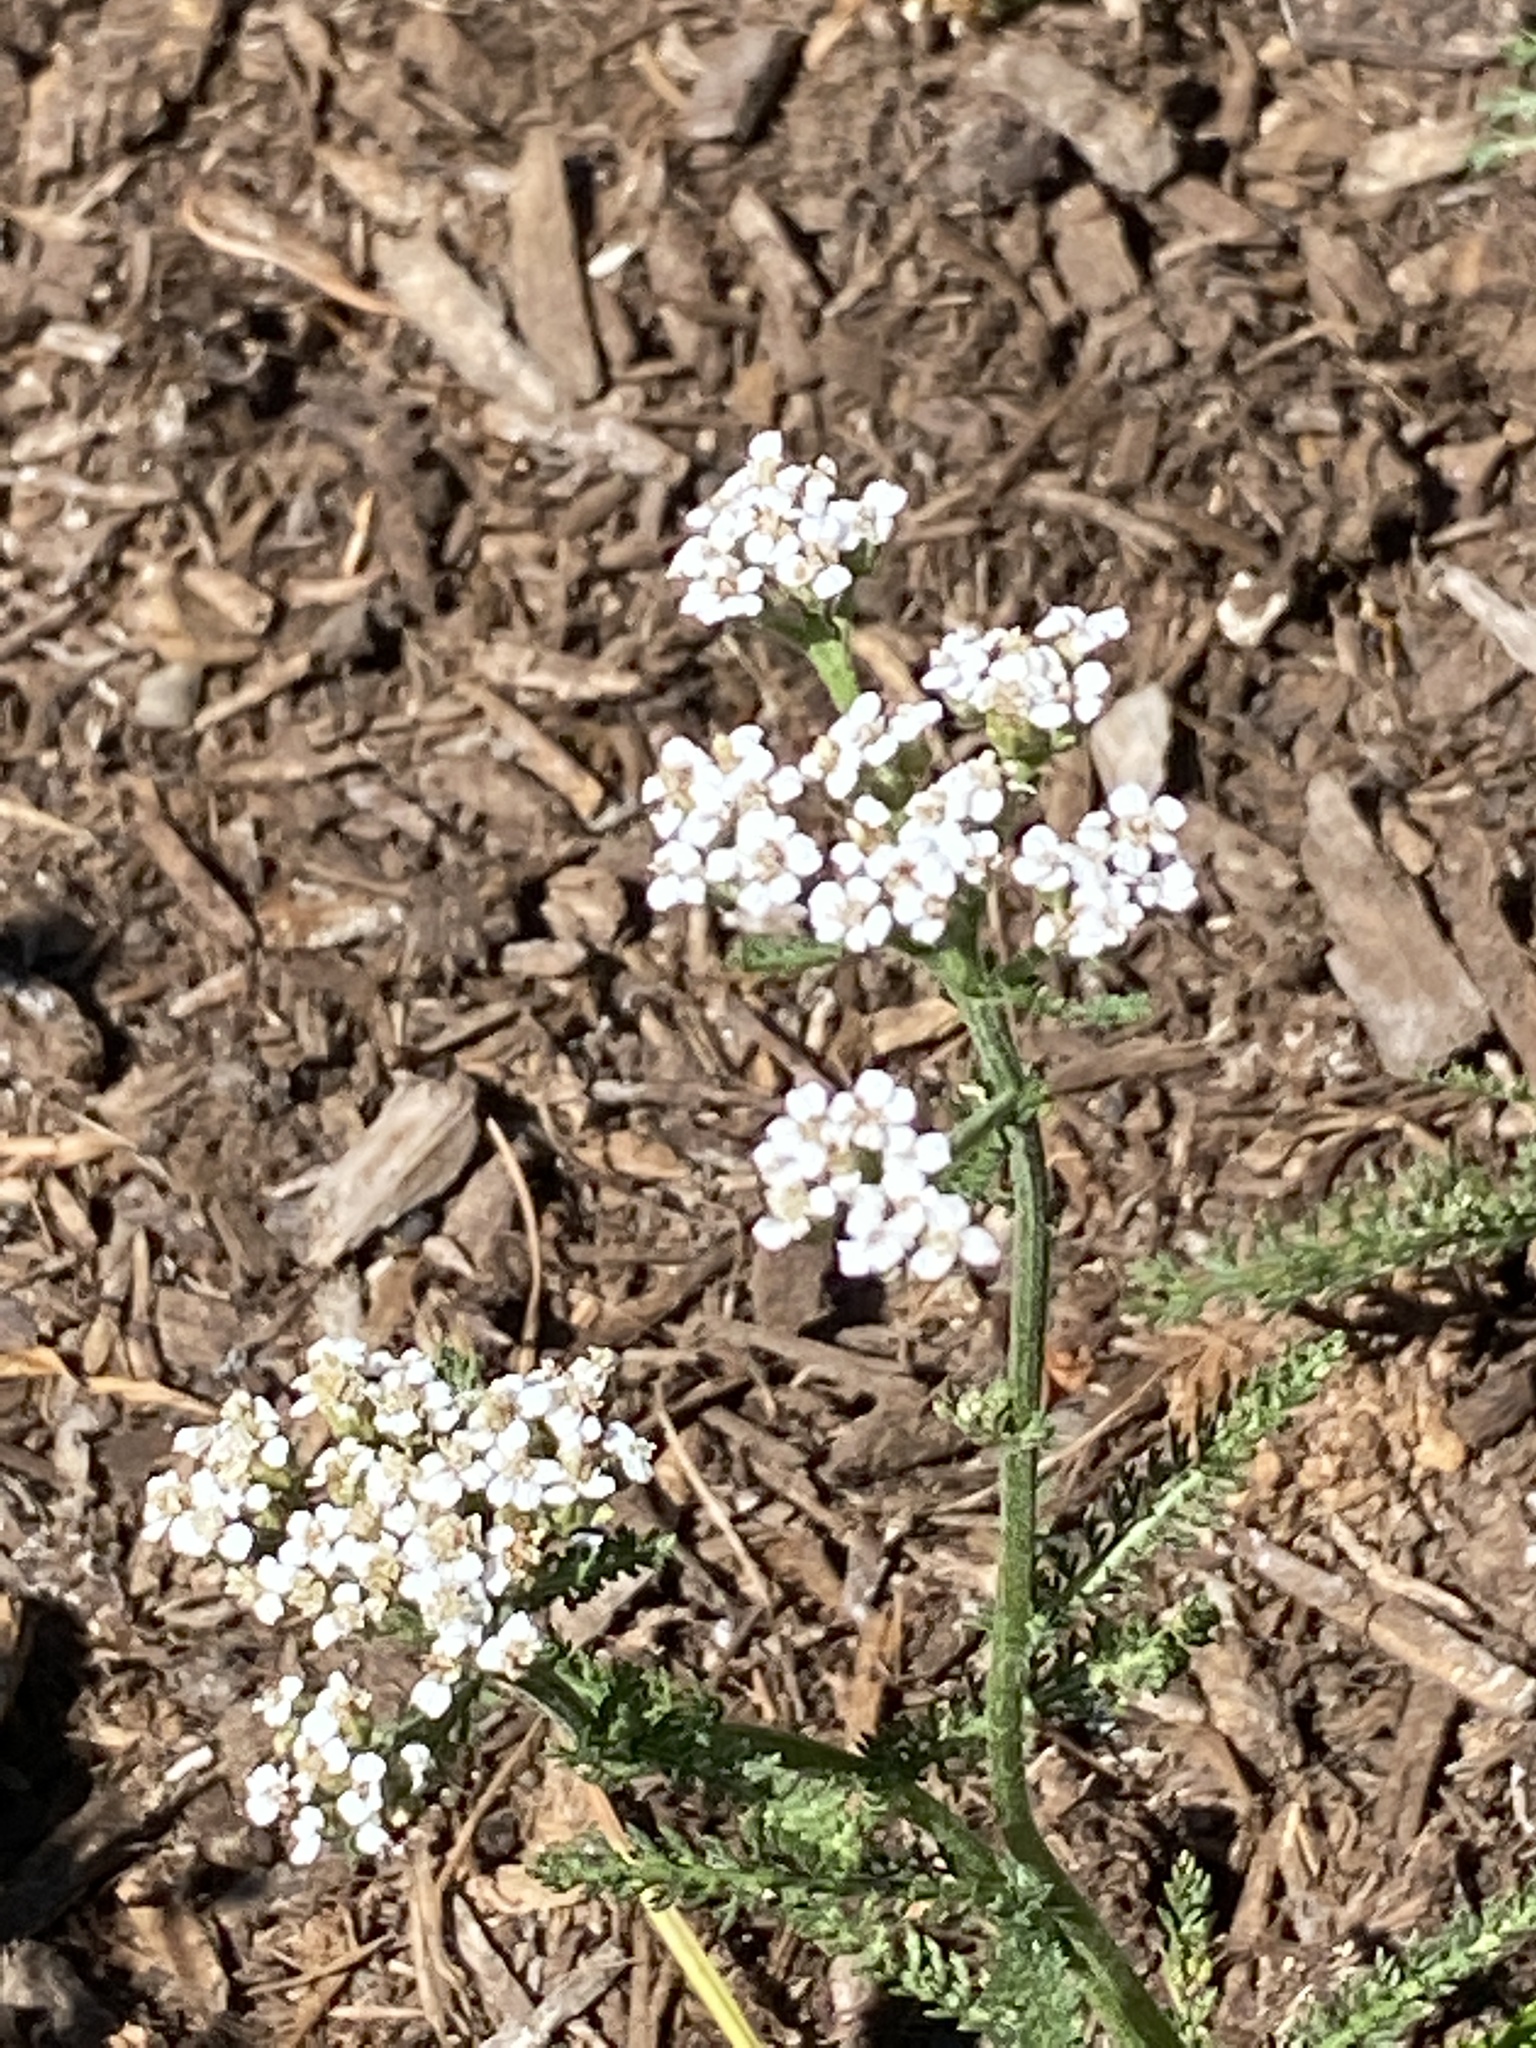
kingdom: Plantae
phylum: Tracheophyta
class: Magnoliopsida
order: Asterales
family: Asteraceae
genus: Achillea
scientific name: Achillea millefolium
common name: Yarrow
